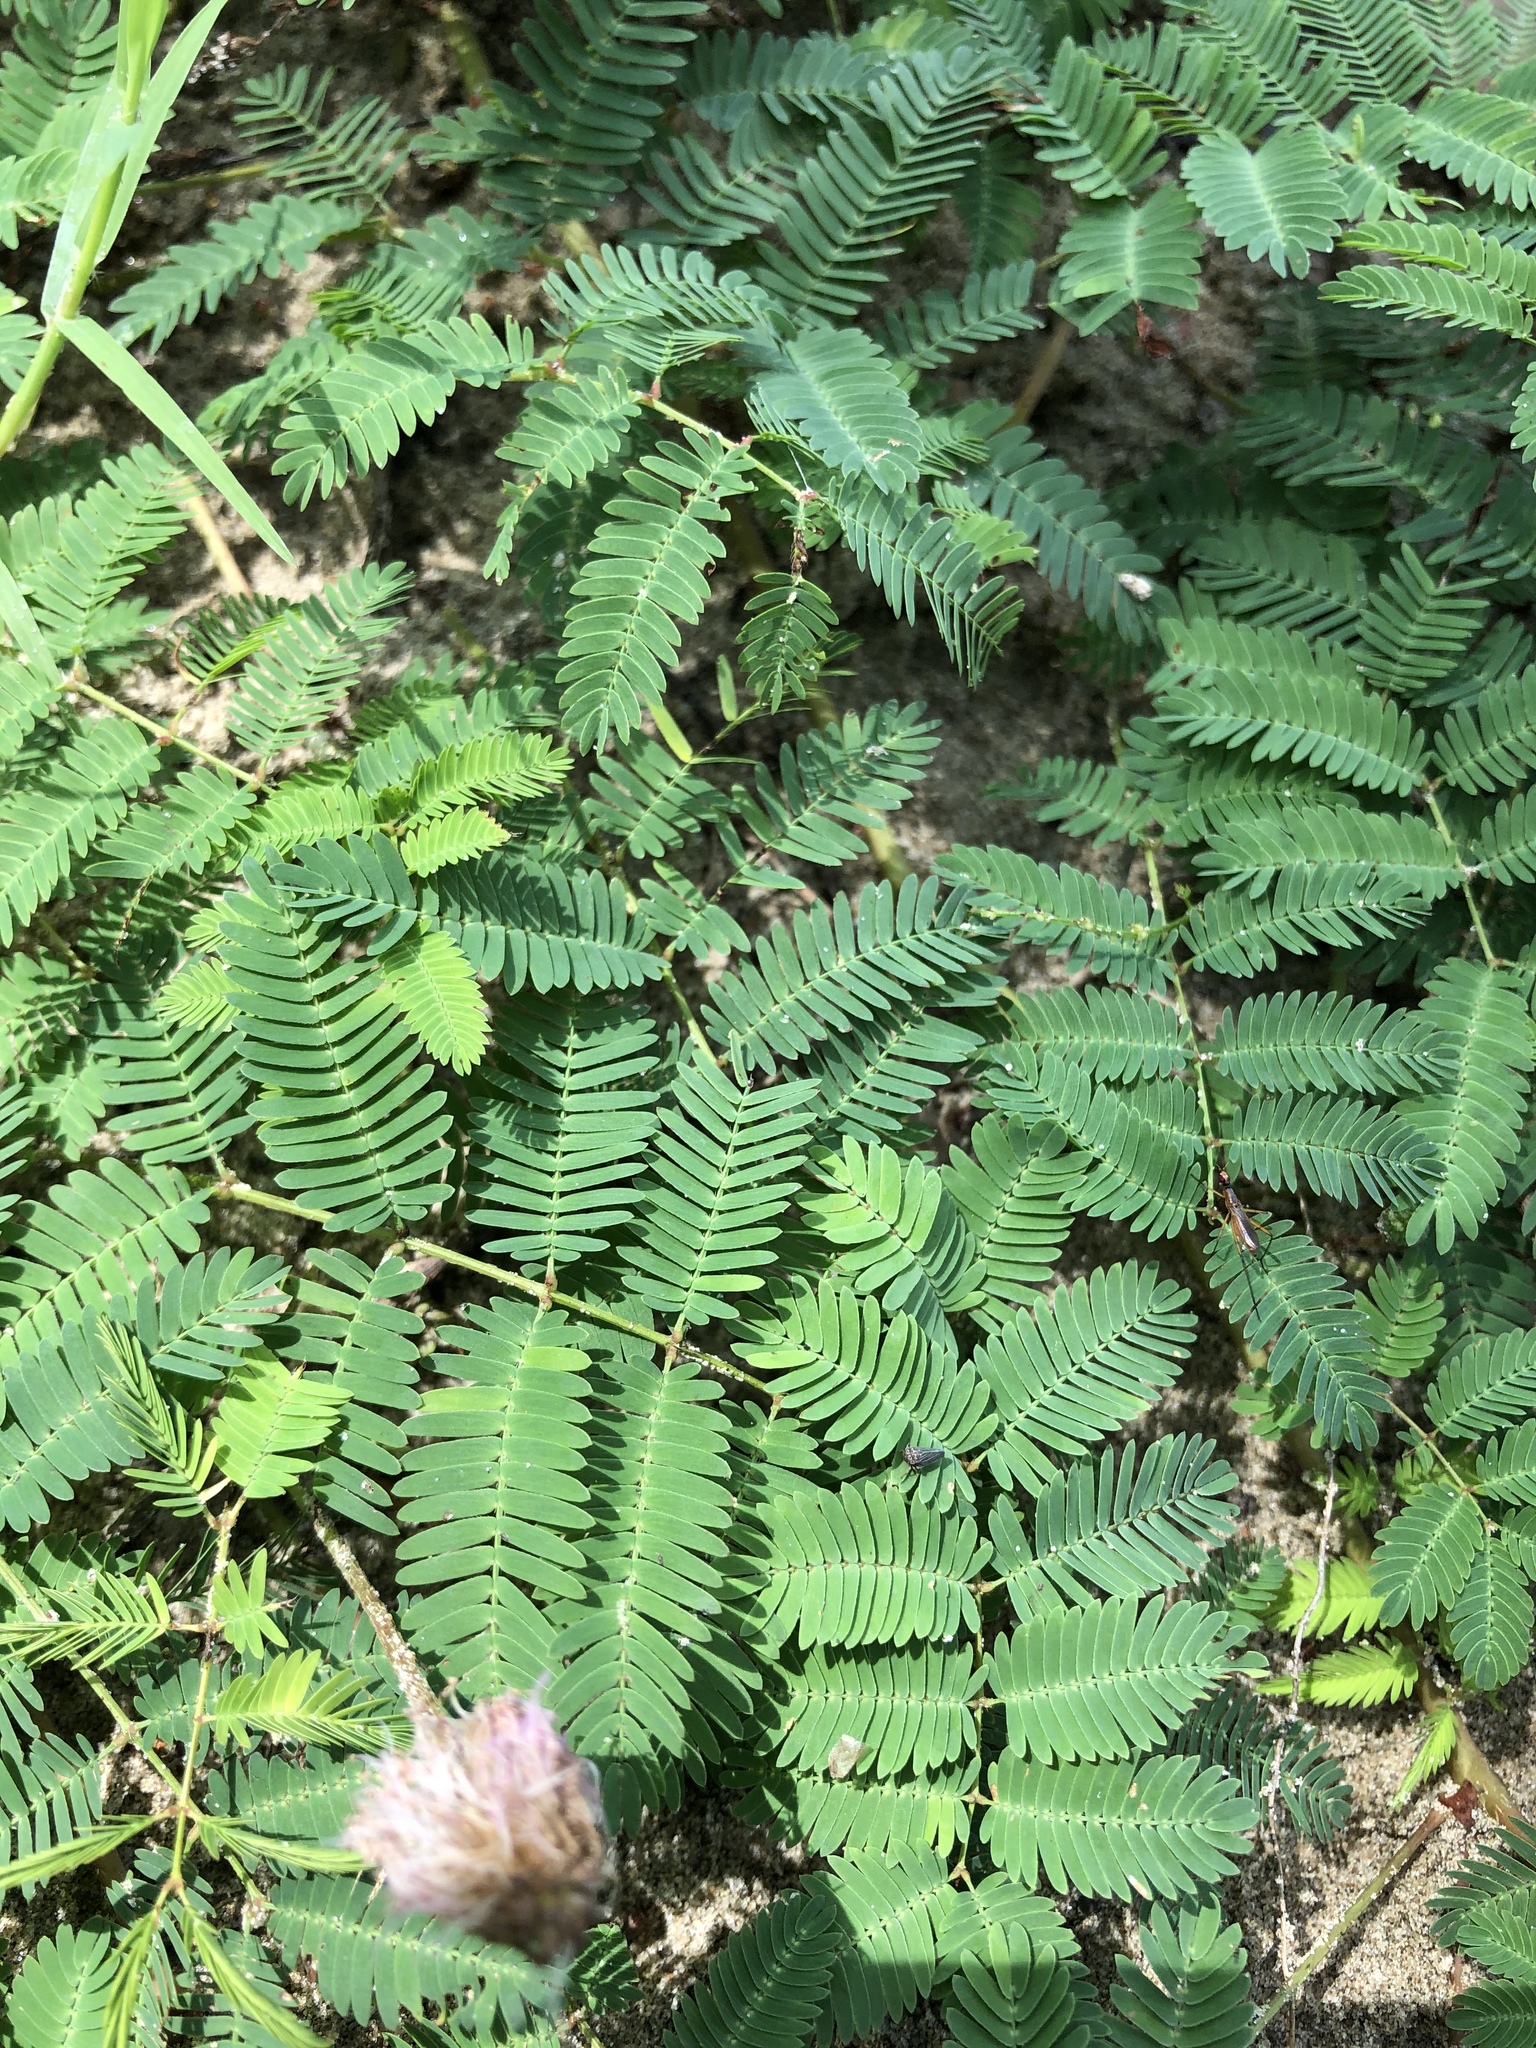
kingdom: Plantae
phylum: Tracheophyta
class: Magnoliopsida
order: Fabales
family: Fabaceae
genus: Mimosa
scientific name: Mimosa strigillosa
